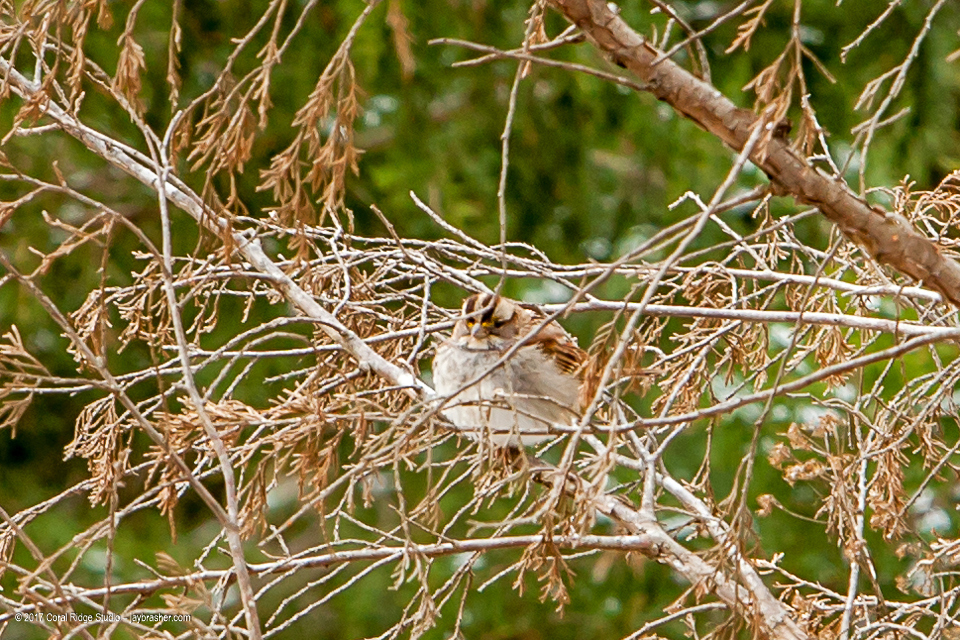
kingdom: Animalia
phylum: Chordata
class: Aves
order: Passeriformes
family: Passerellidae
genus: Zonotrichia
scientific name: Zonotrichia albicollis
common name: White-throated sparrow
